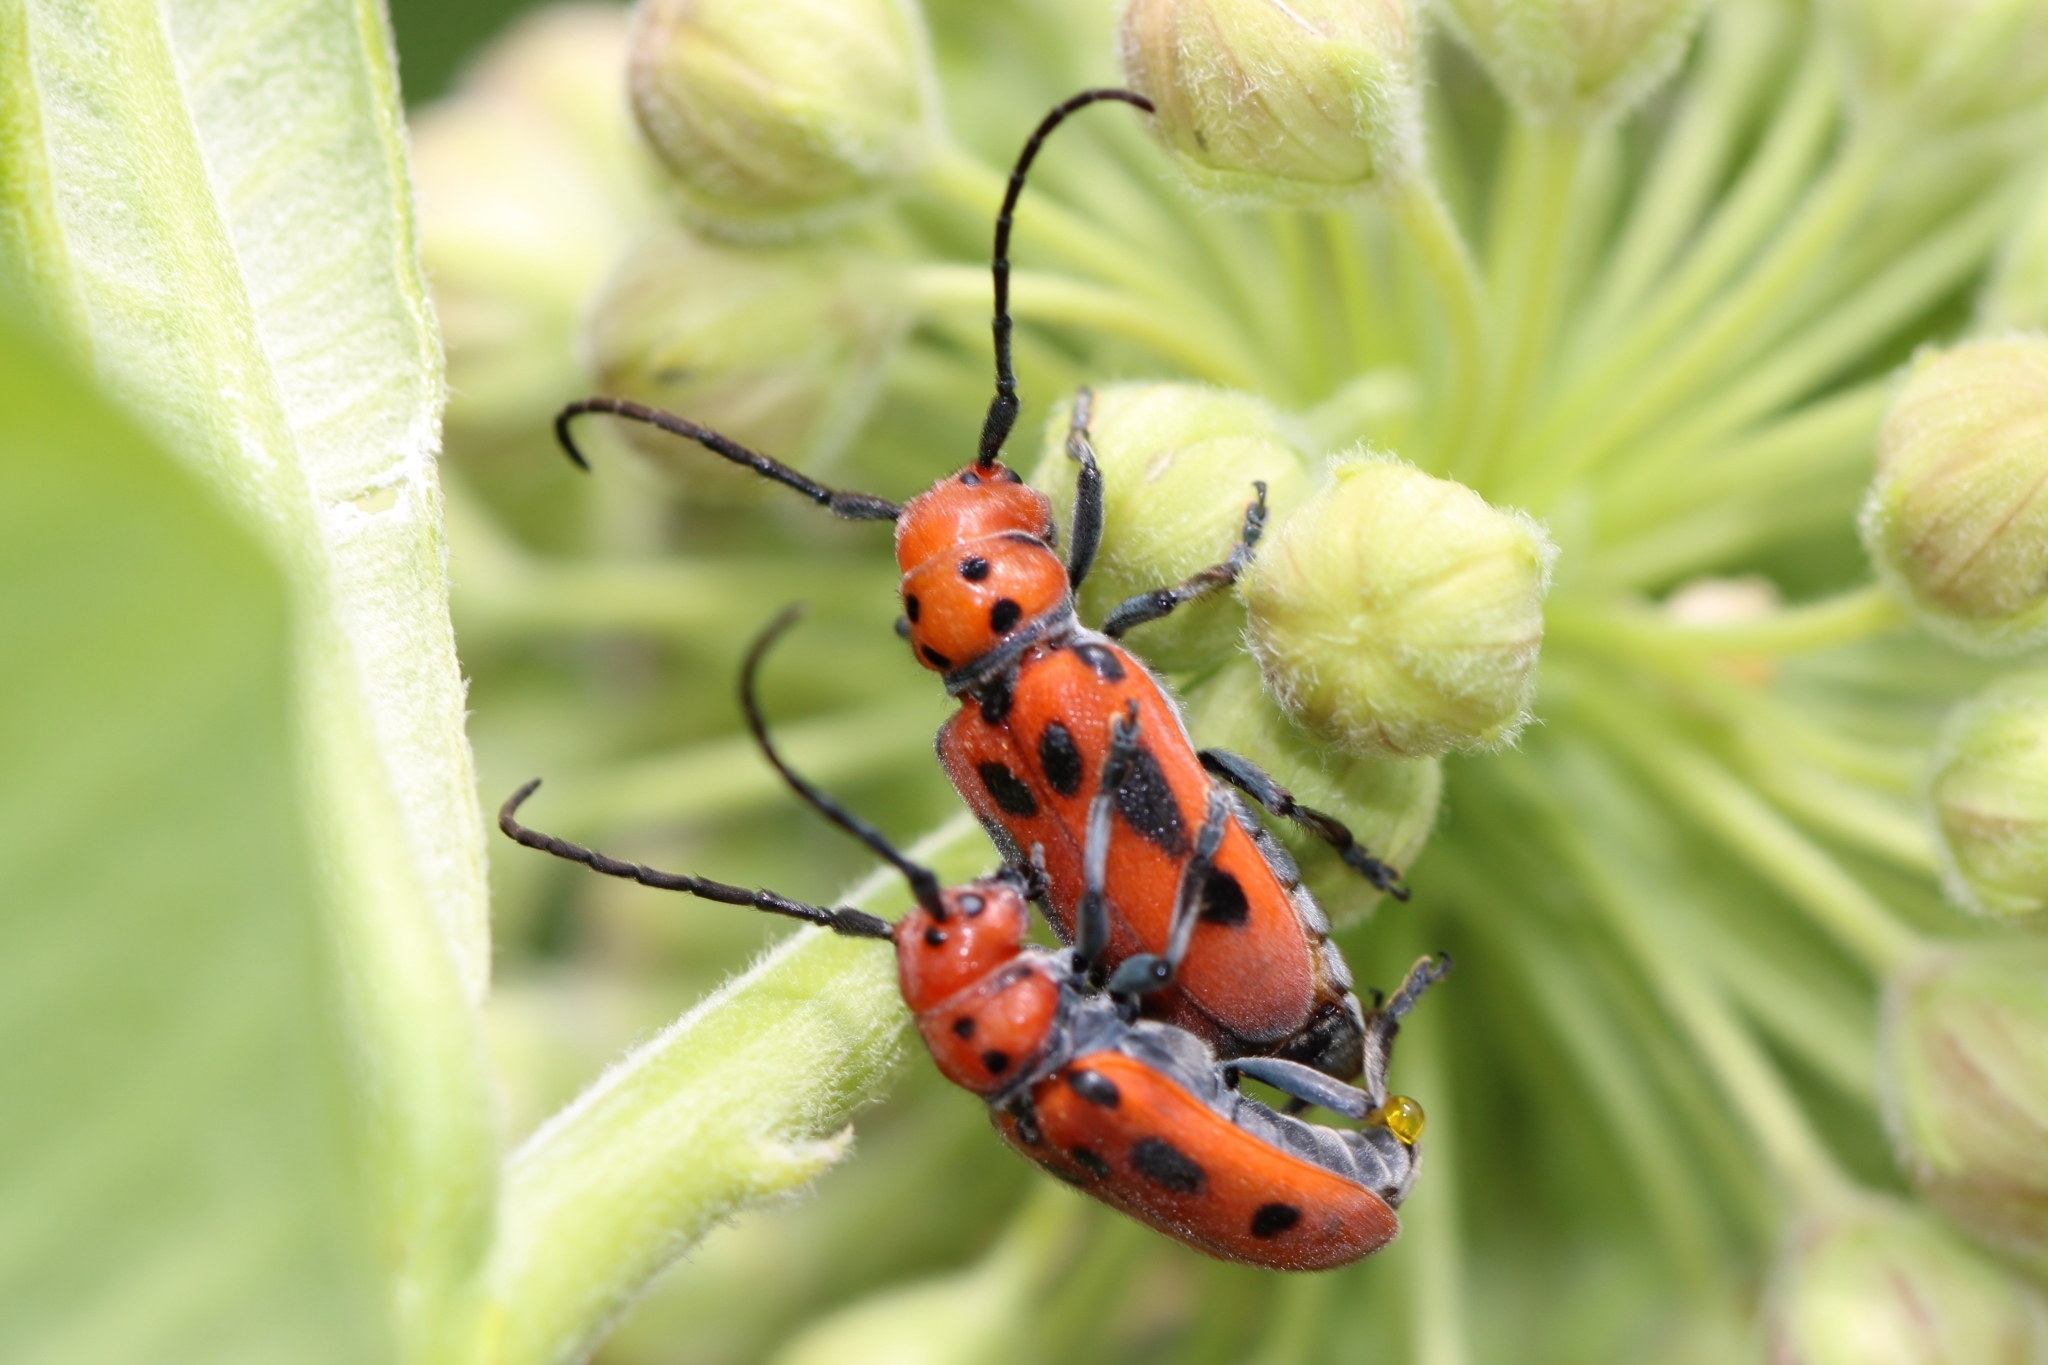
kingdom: Animalia
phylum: Arthropoda
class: Insecta
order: Coleoptera
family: Cerambycidae
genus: Tetraopes
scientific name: Tetraopes tetrophthalmus
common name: Red milkweed beetle
